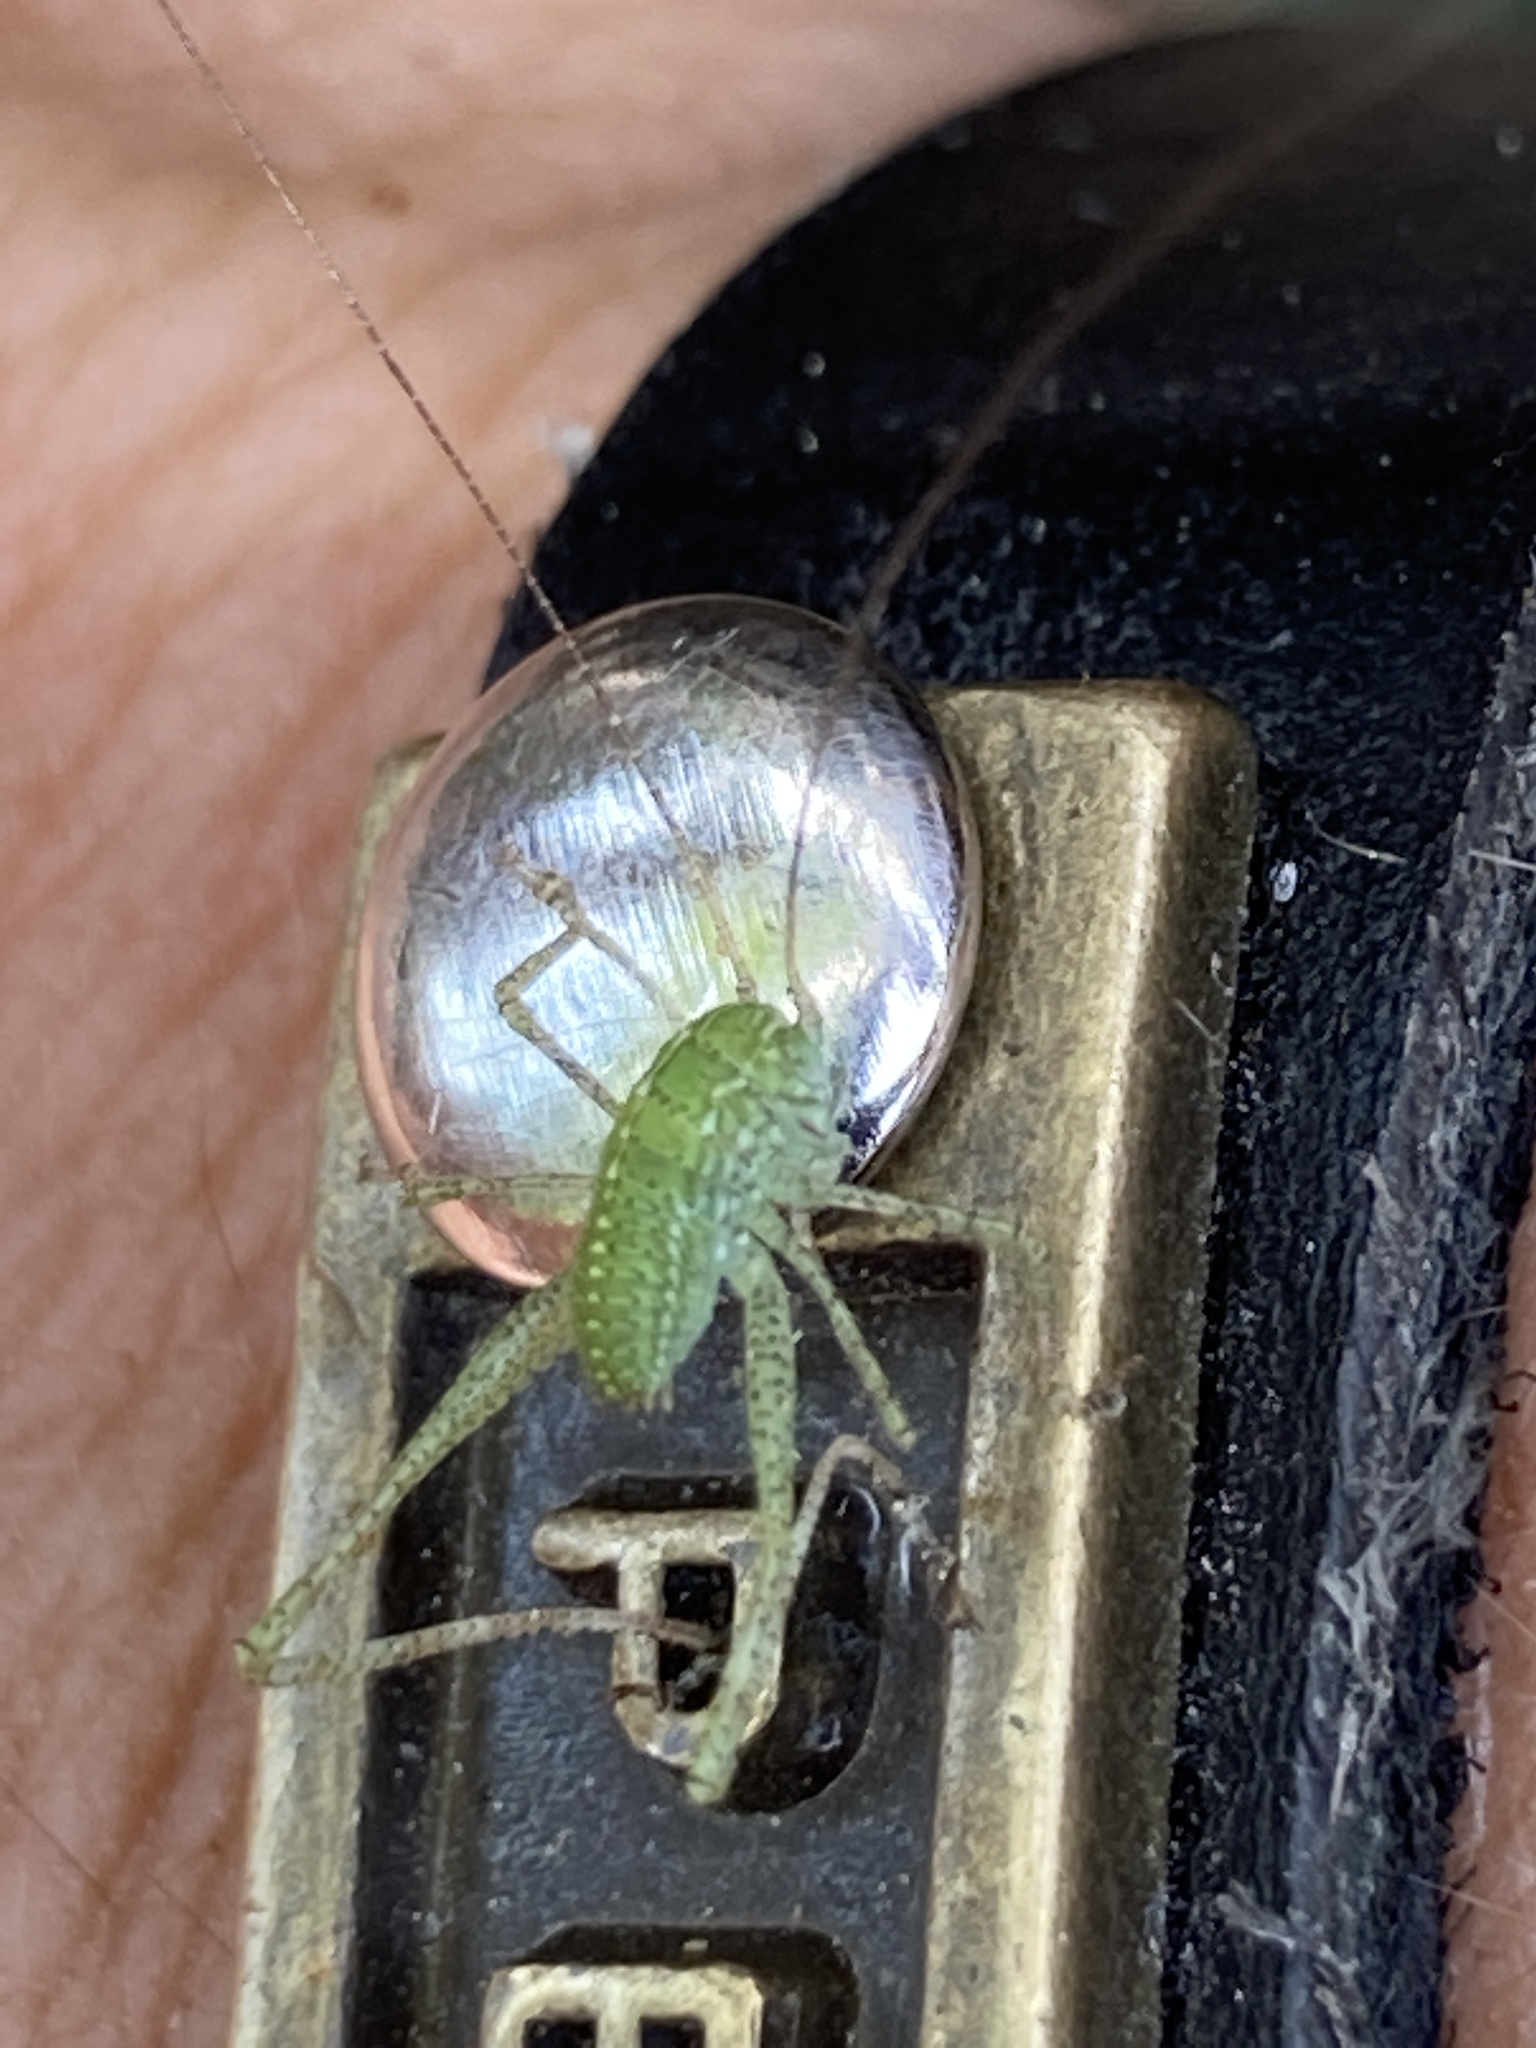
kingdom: Animalia
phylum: Arthropoda
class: Insecta
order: Orthoptera
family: Tettigoniidae
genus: Microcentrum
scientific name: Microcentrum rhombifolium
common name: Broad-winged katydid
